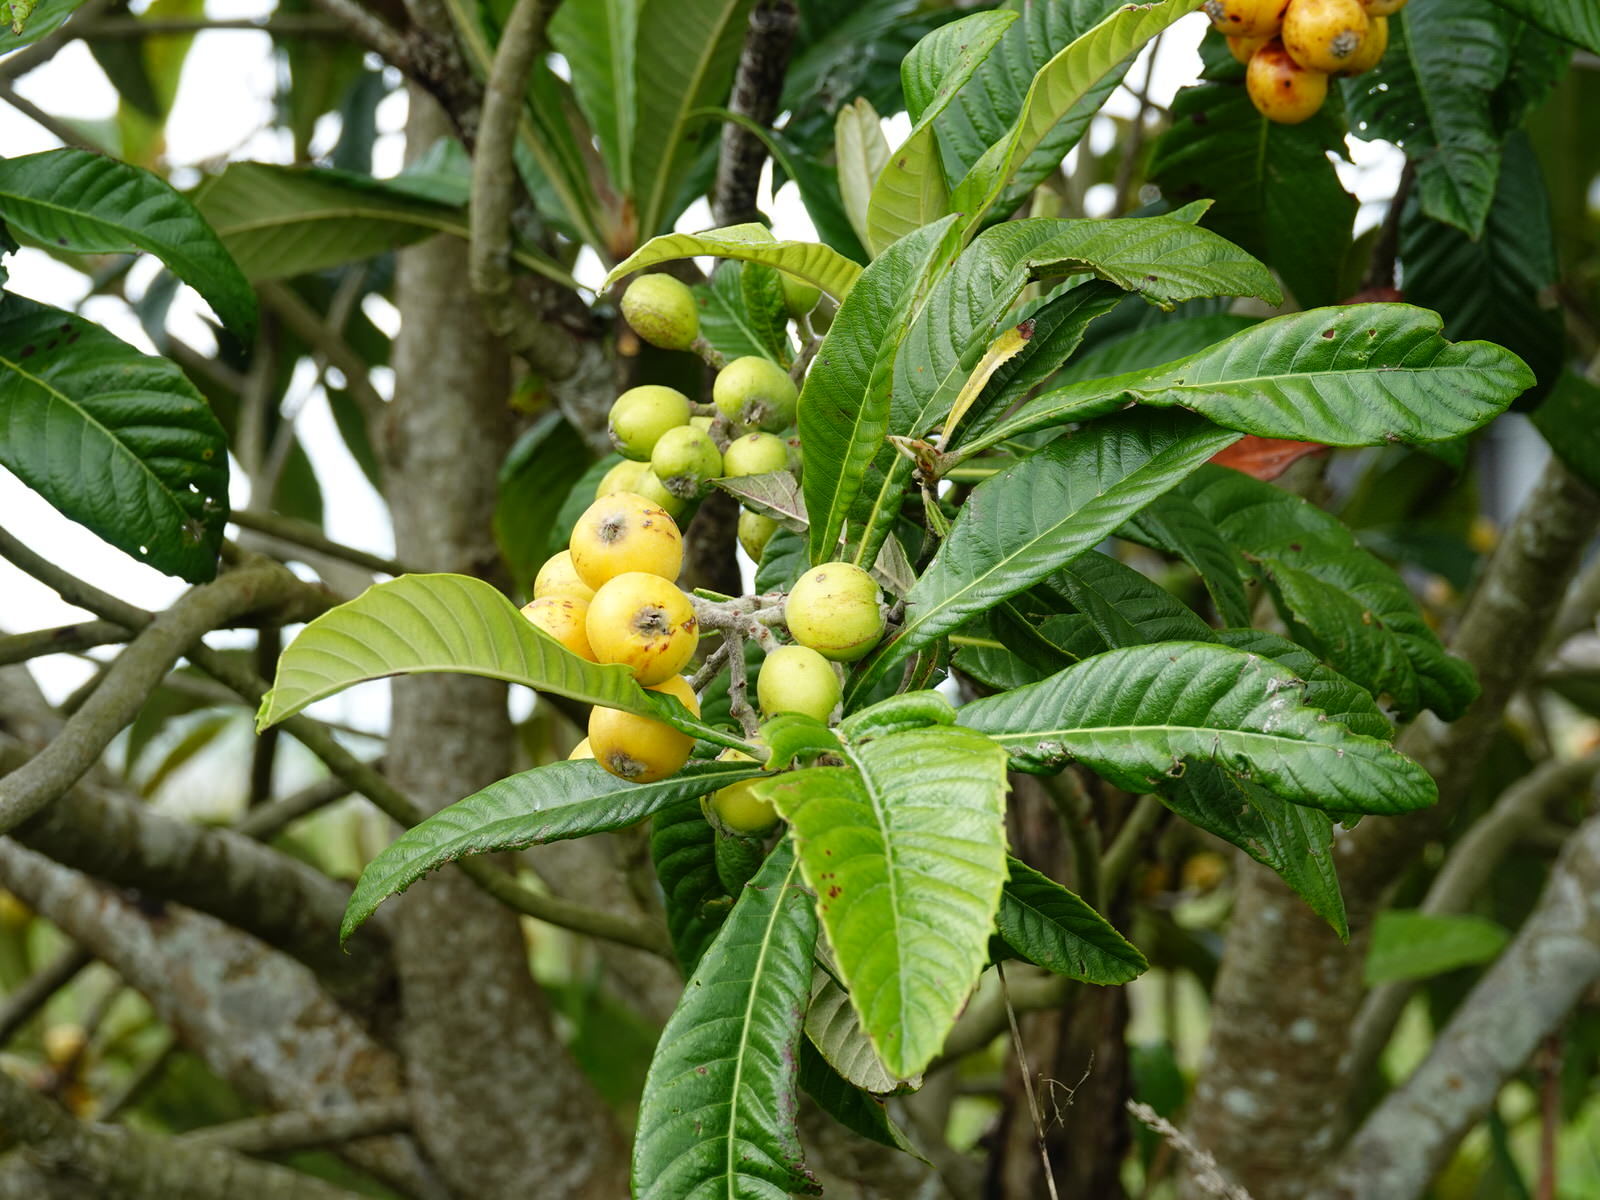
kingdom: Plantae
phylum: Tracheophyta
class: Magnoliopsida
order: Rosales
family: Rosaceae
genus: Rhaphiolepis
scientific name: Rhaphiolepis bibas
